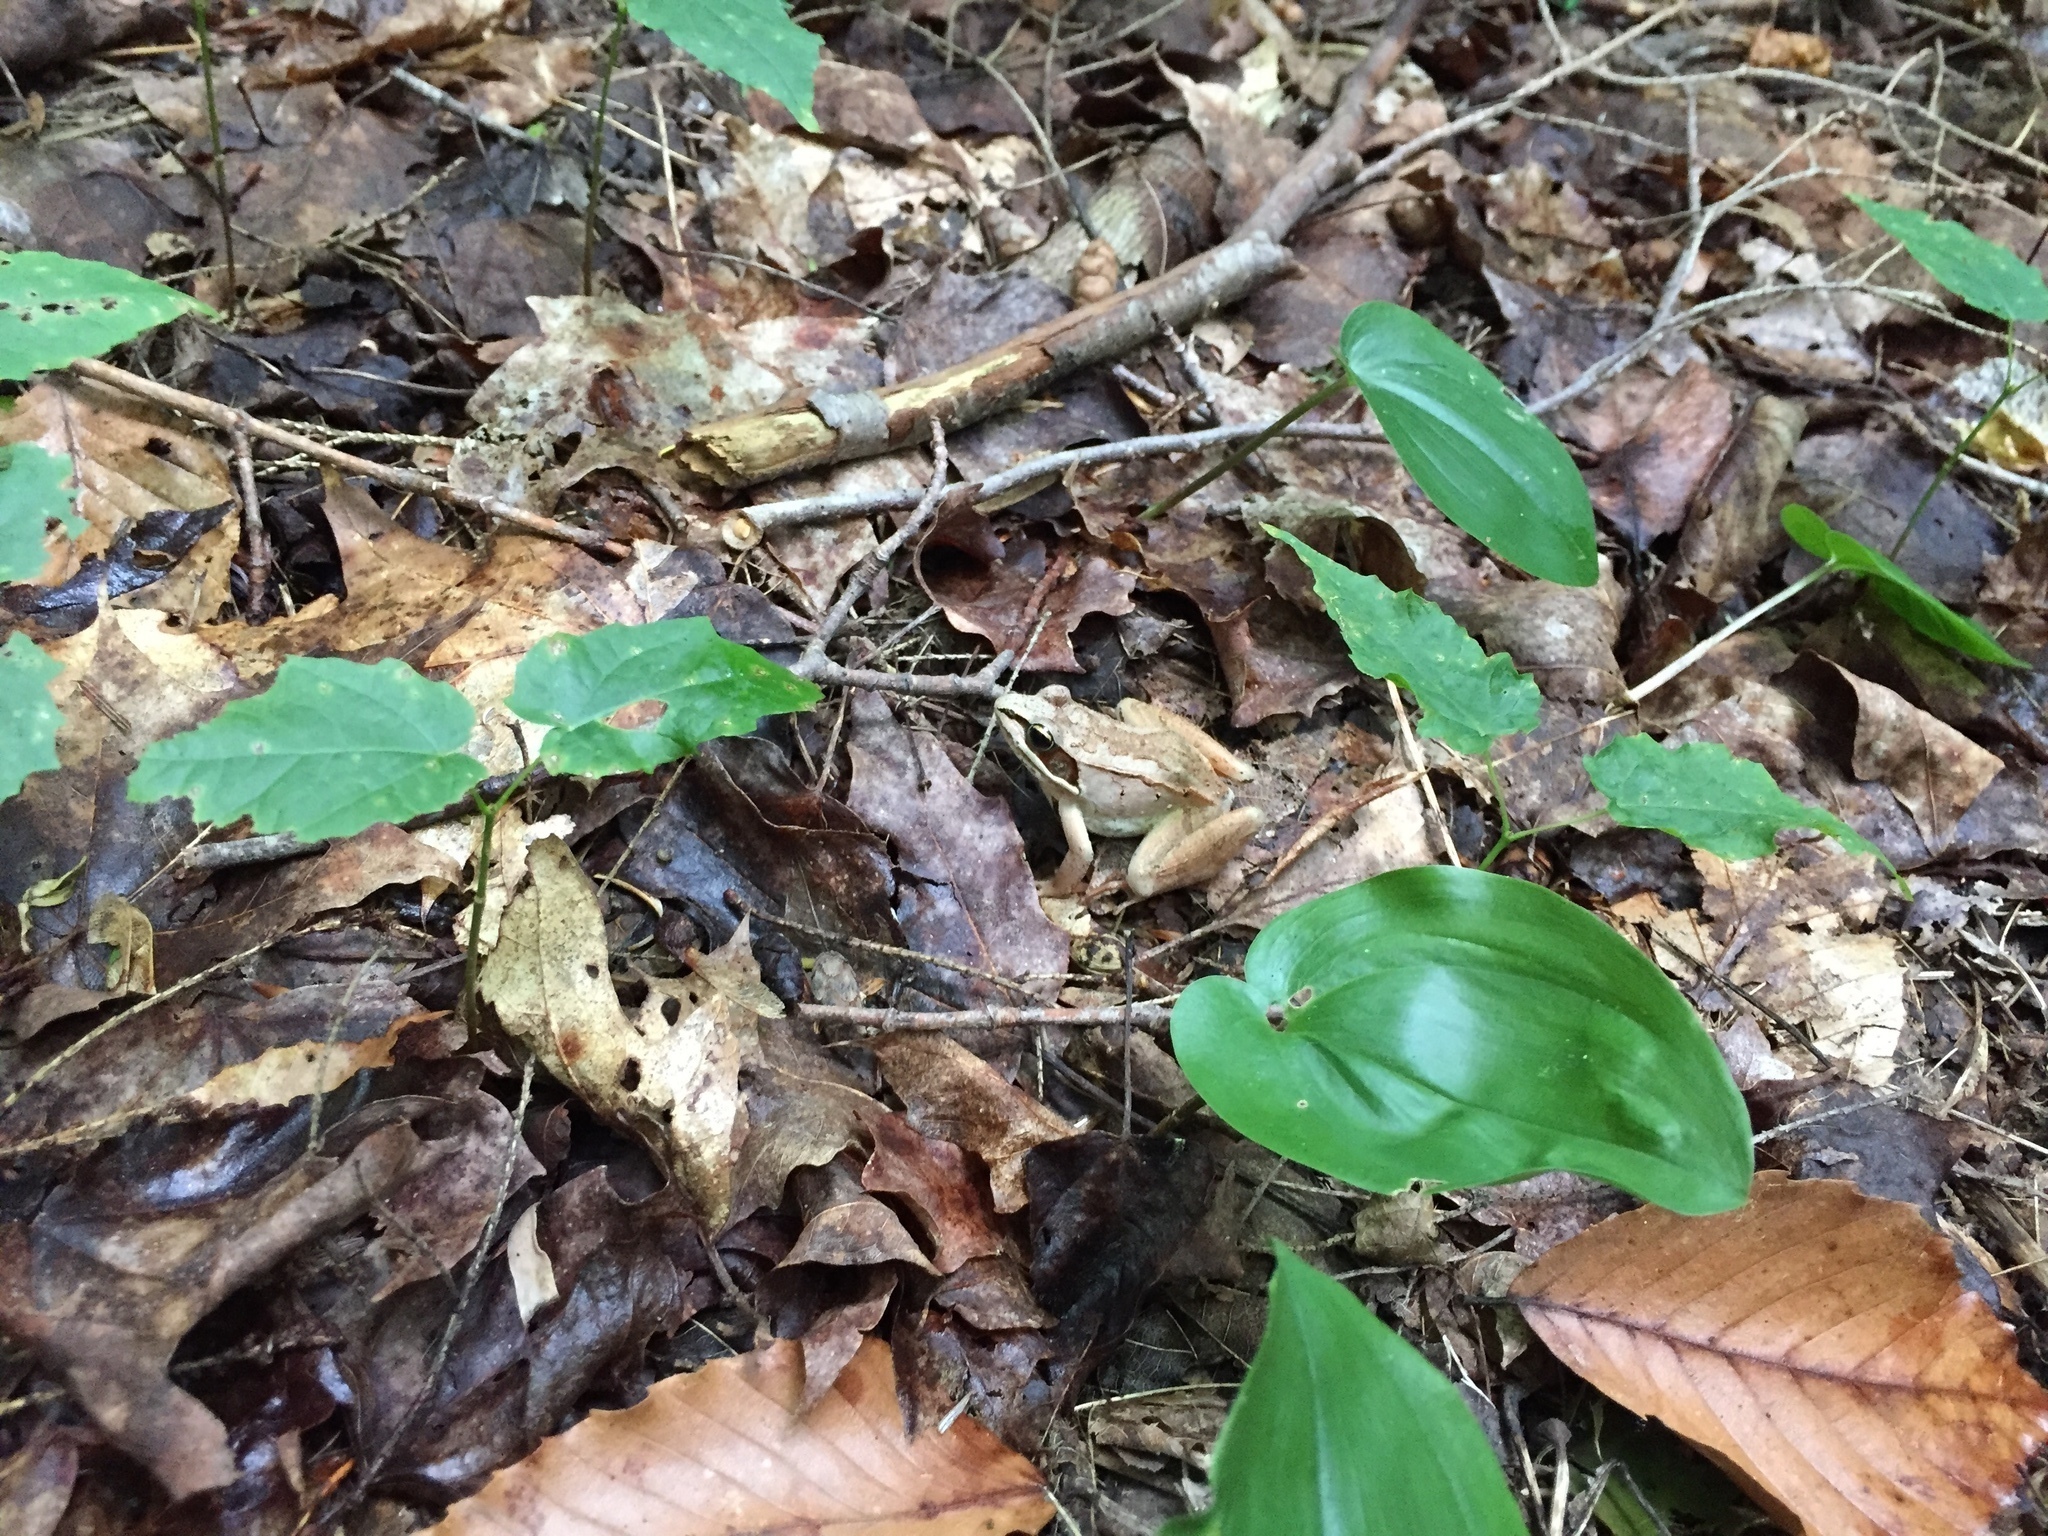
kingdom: Animalia
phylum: Chordata
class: Amphibia
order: Anura
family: Ranidae
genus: Lithobates
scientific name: Lithobates sylvaticus
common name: Wood frog
